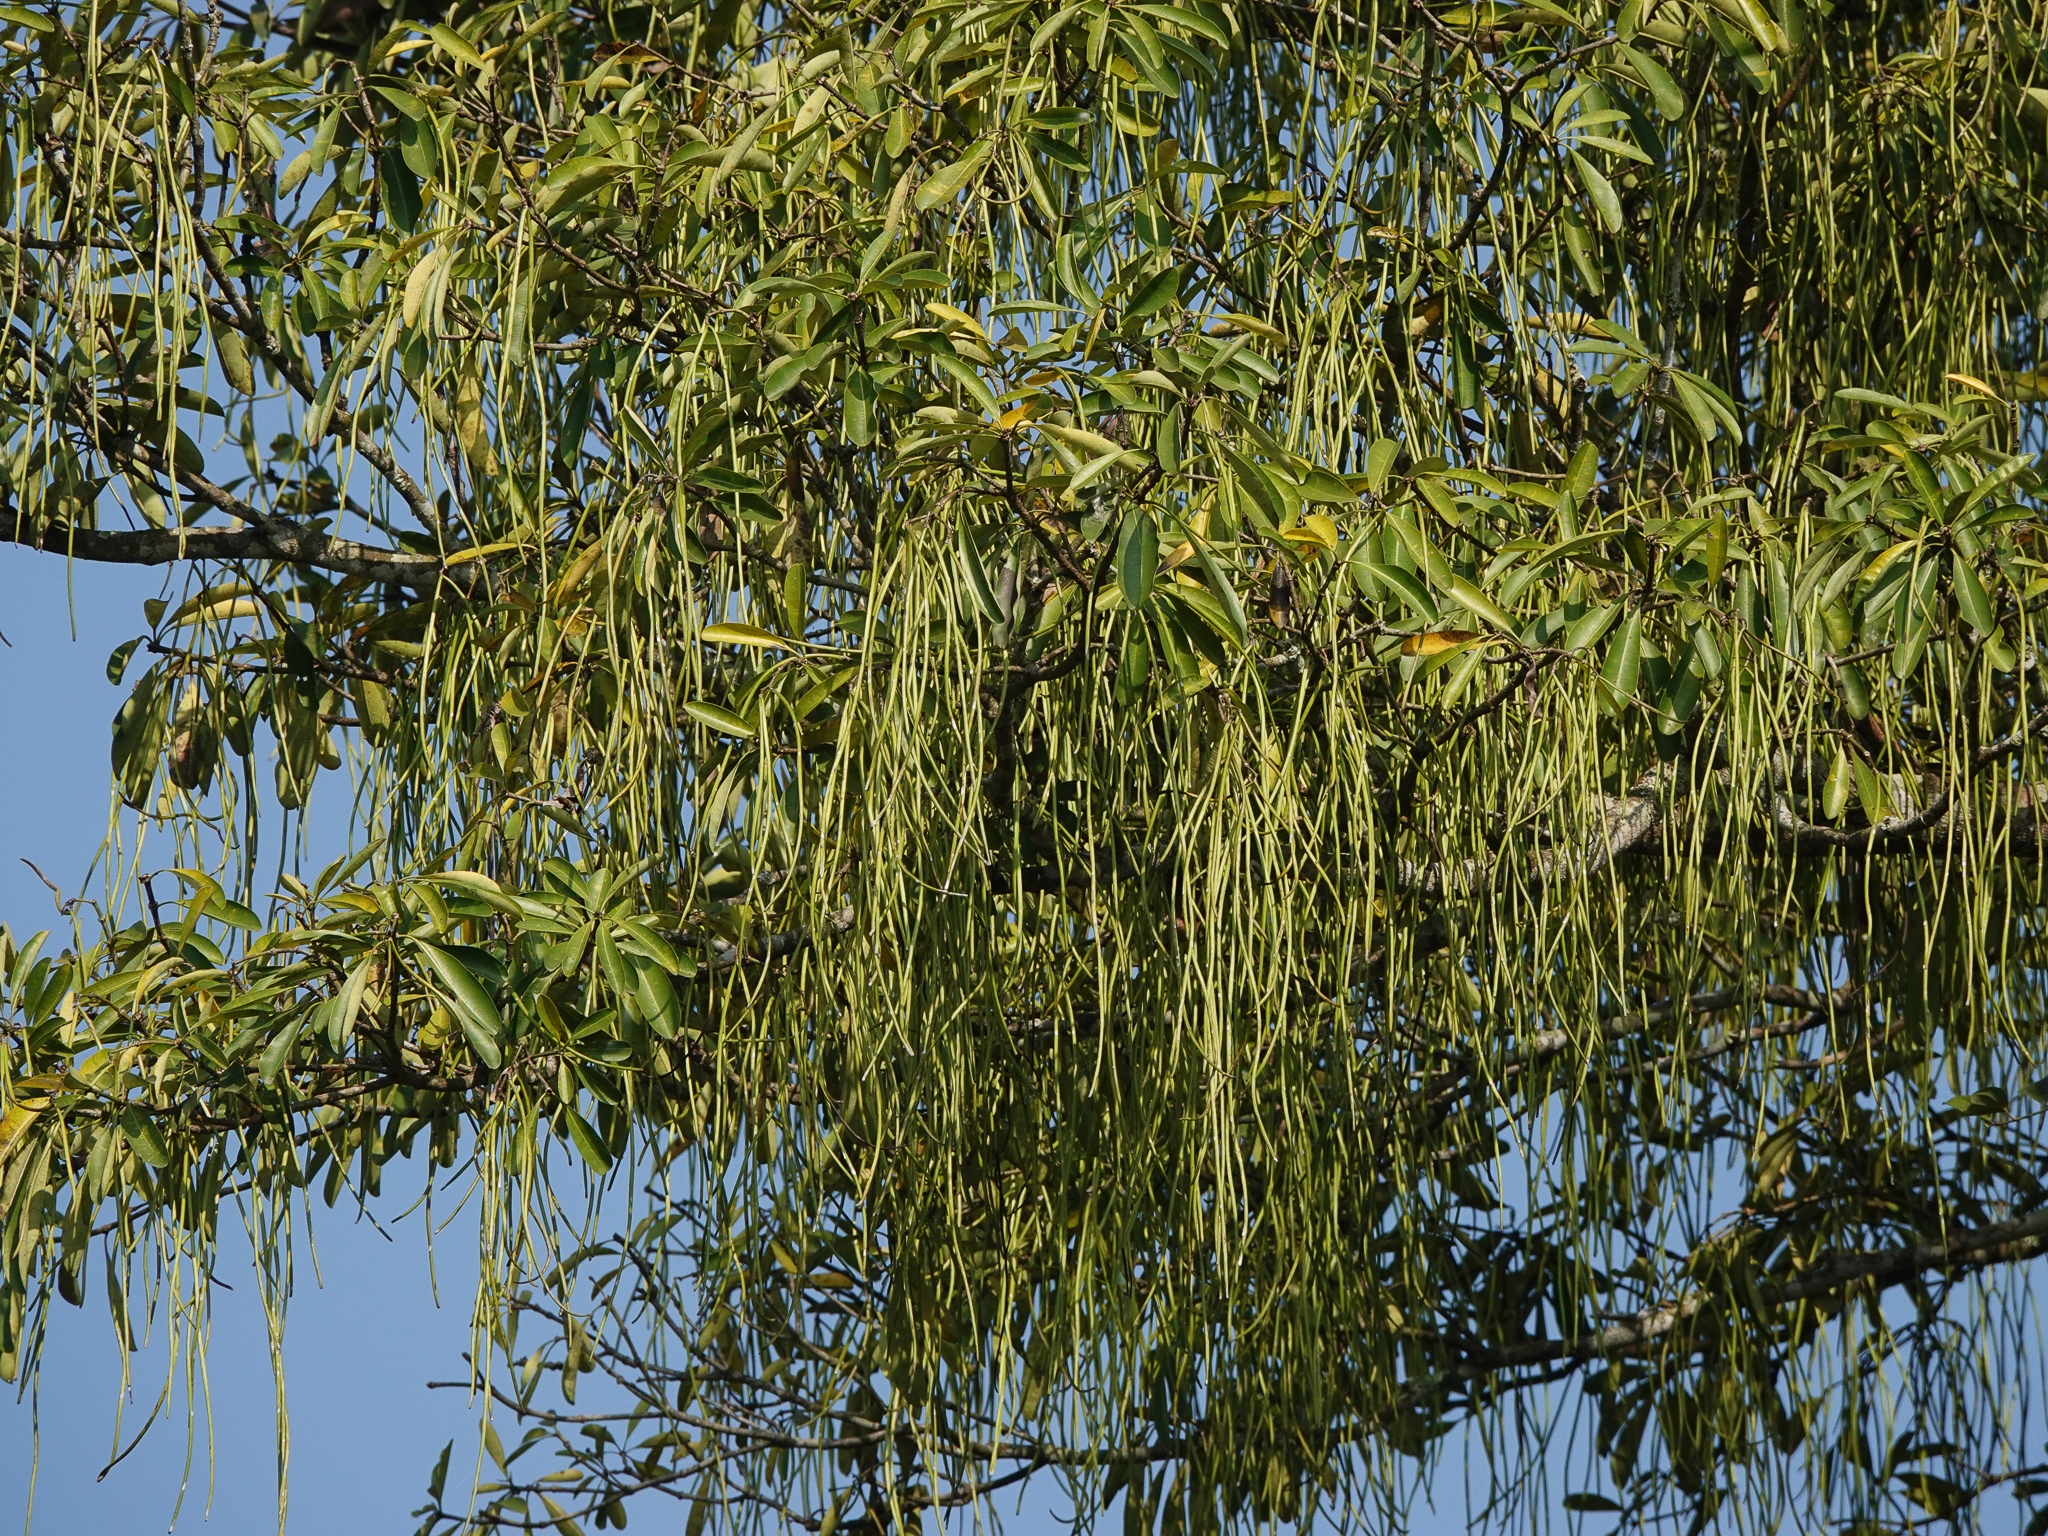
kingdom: Plantae
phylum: Tracheophyta
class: Magnoliopsida
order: Gentianales
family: Apocynaceae
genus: Alstonia
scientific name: Alstonia scholaris
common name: White cheesewood
